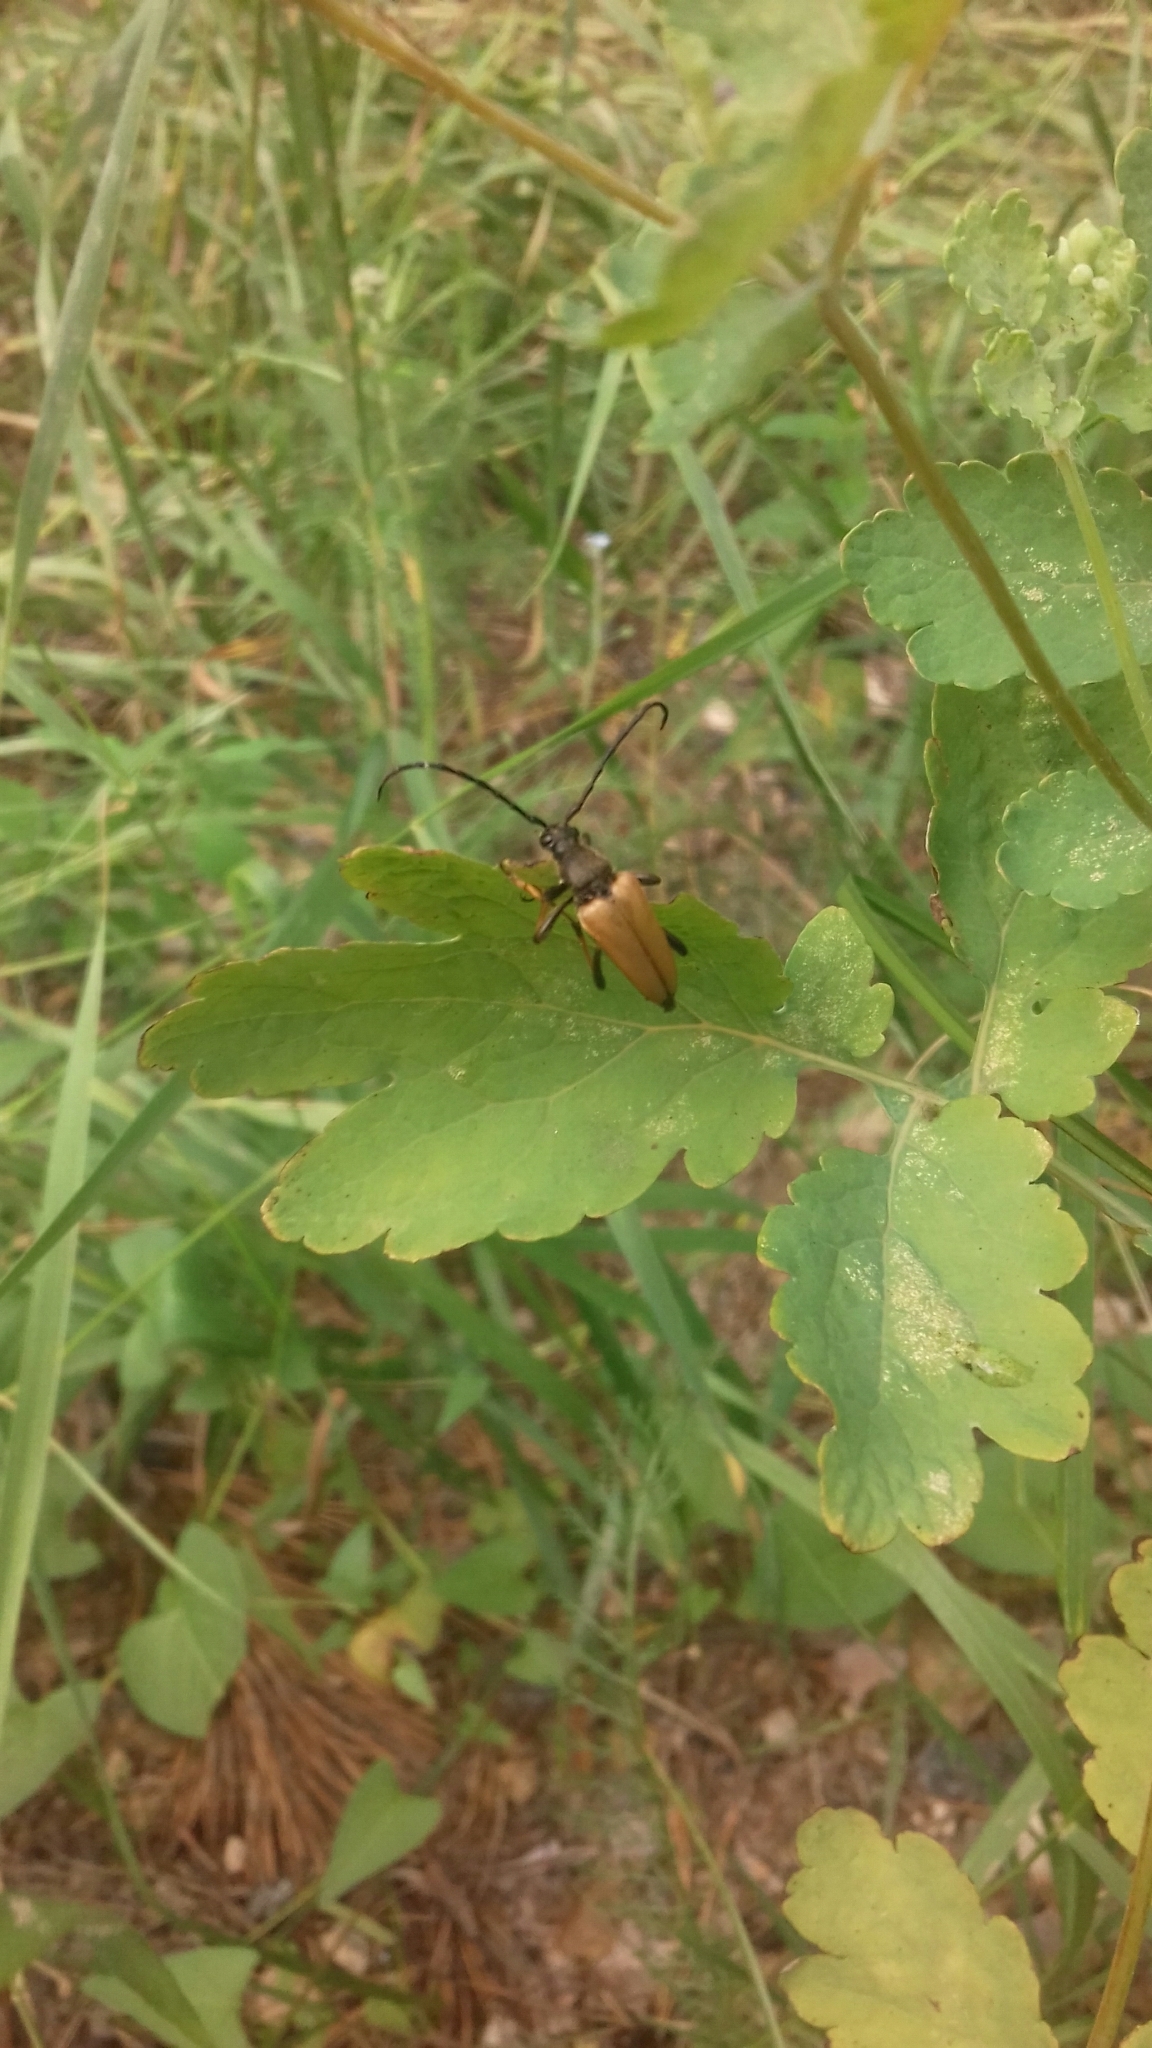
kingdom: Animalia
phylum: Arthropoda
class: Insecta
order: Coleoptera
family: Cerambycidae
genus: Stictoleptura
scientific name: Stictoleptura rubra
